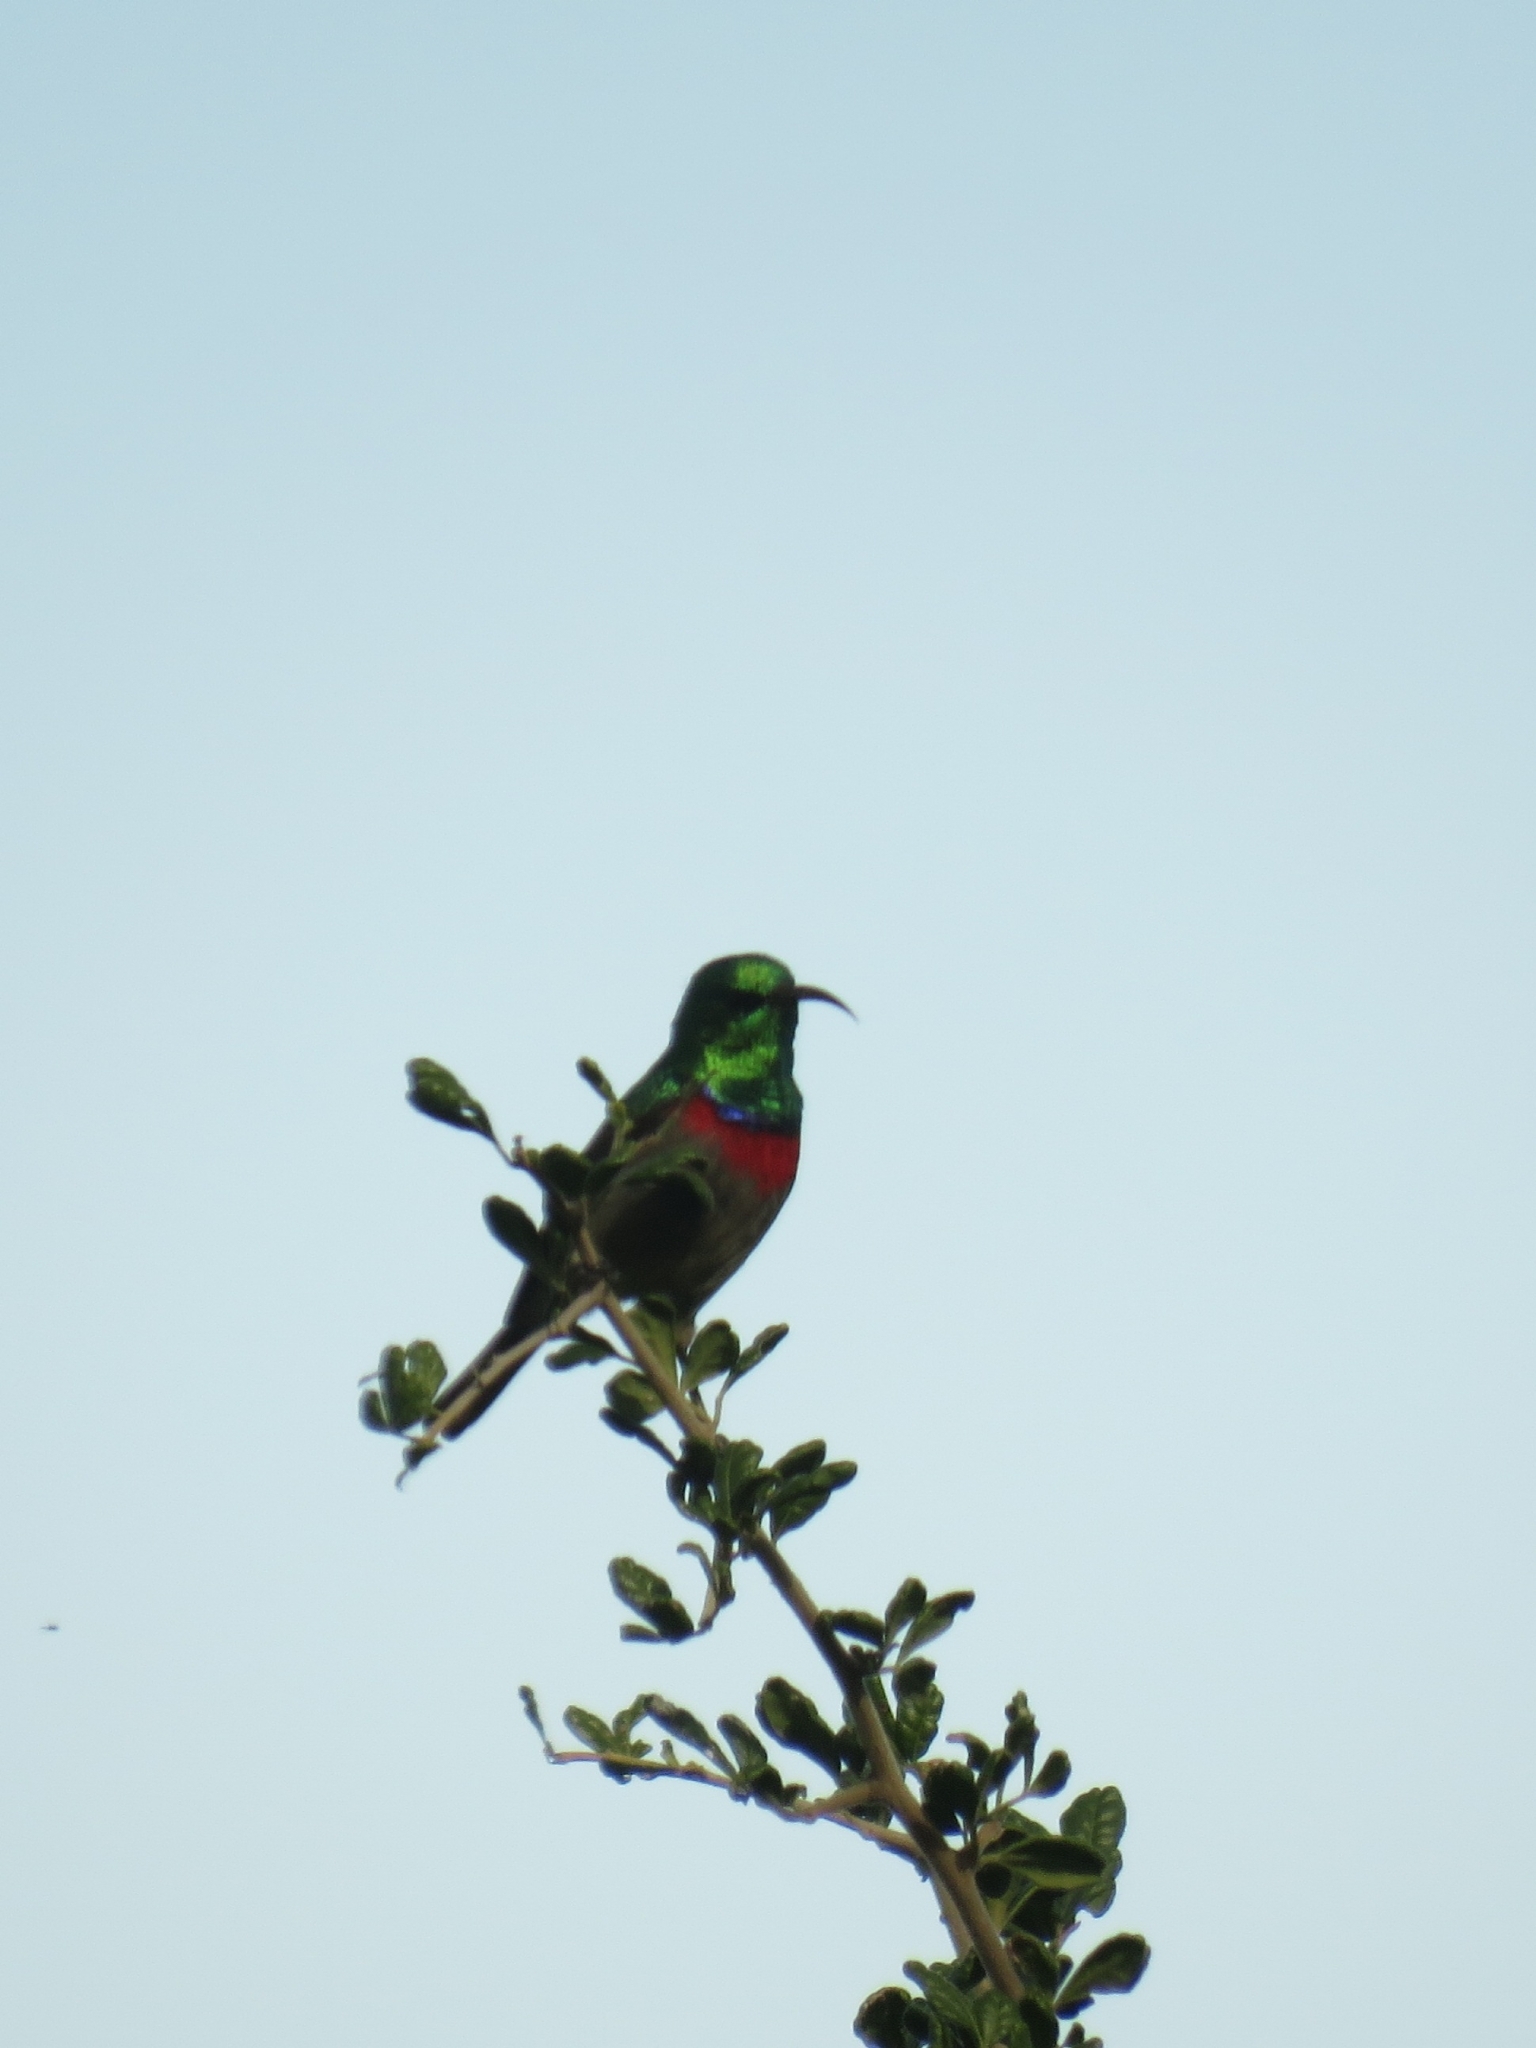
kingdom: Animalia
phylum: Chordata
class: Aves
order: Passeriformes
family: Nectariniidae
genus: Cinnyris
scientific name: Cinnyris chalybeus
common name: Southern double-collared sunbird
